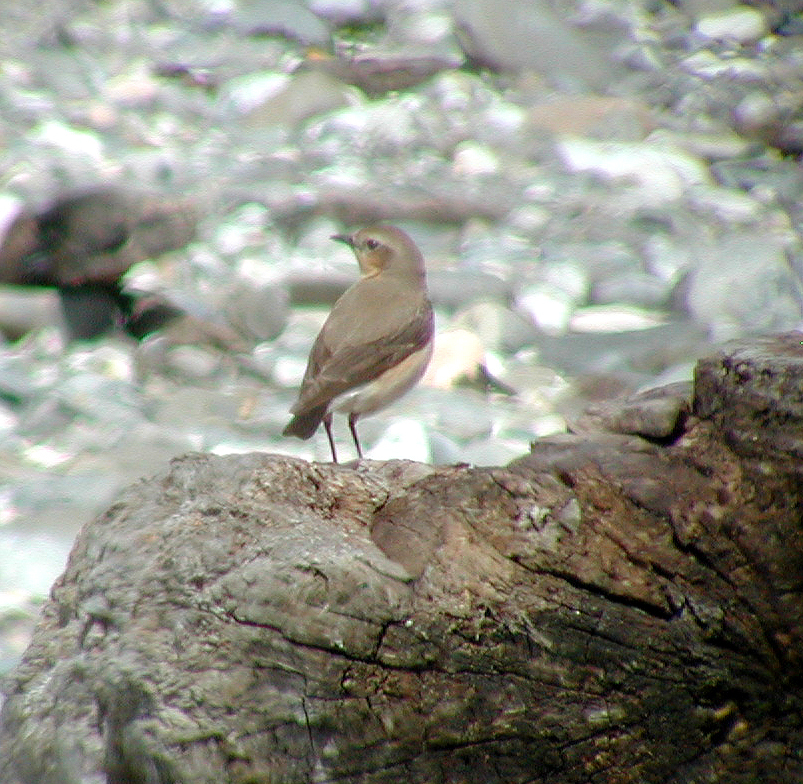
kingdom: Animalia
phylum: Chordata
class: Aves
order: Passeriformes
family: Muscicapidae
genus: Oenanthe
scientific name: Oenanthe oenanthe
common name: Northern wheatear
